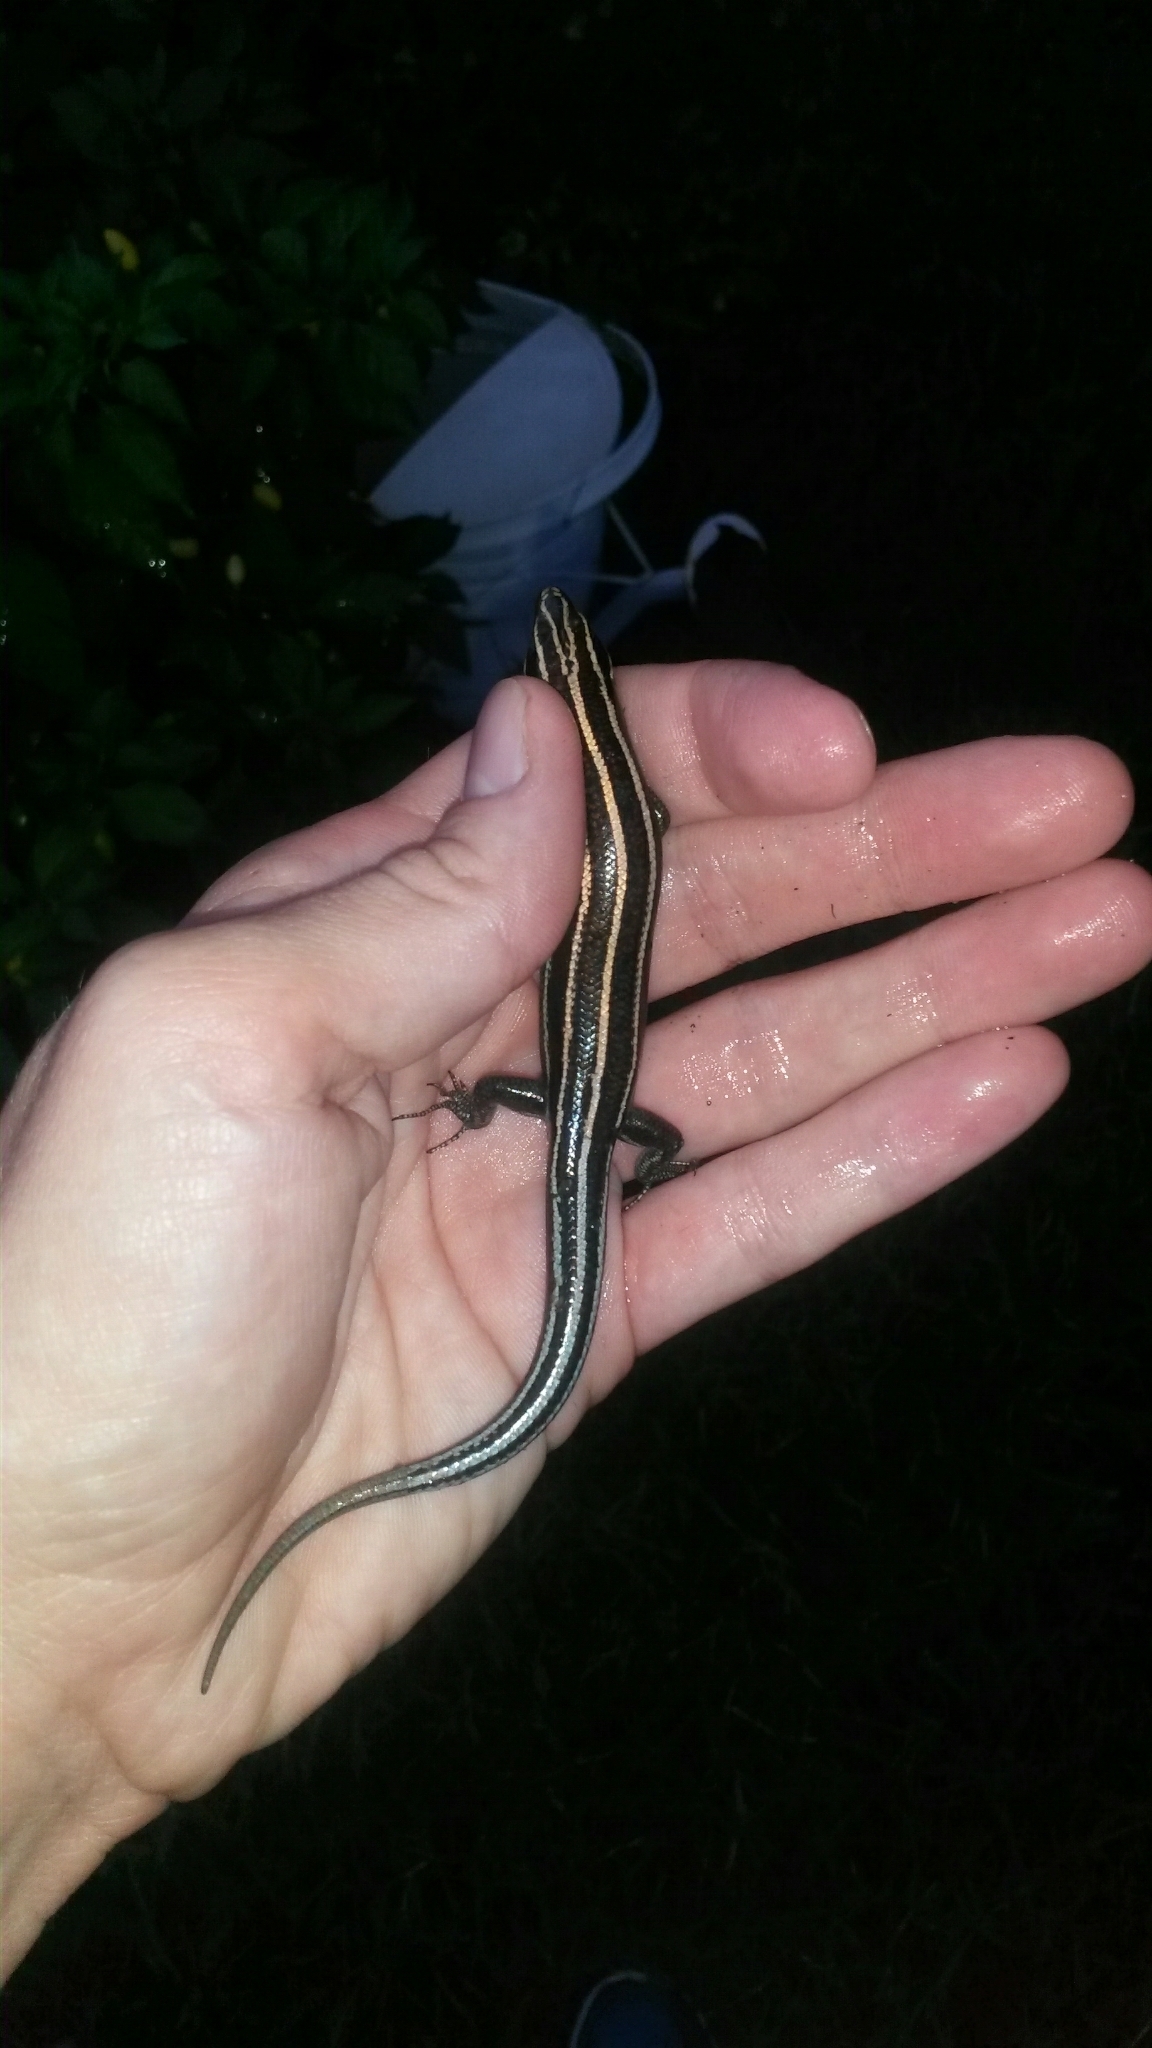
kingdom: Animalia
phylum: Chordata
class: Squamata
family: Scincidae
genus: Plestiodon
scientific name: Plestiodon fasciatus
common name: Five-lined skink
